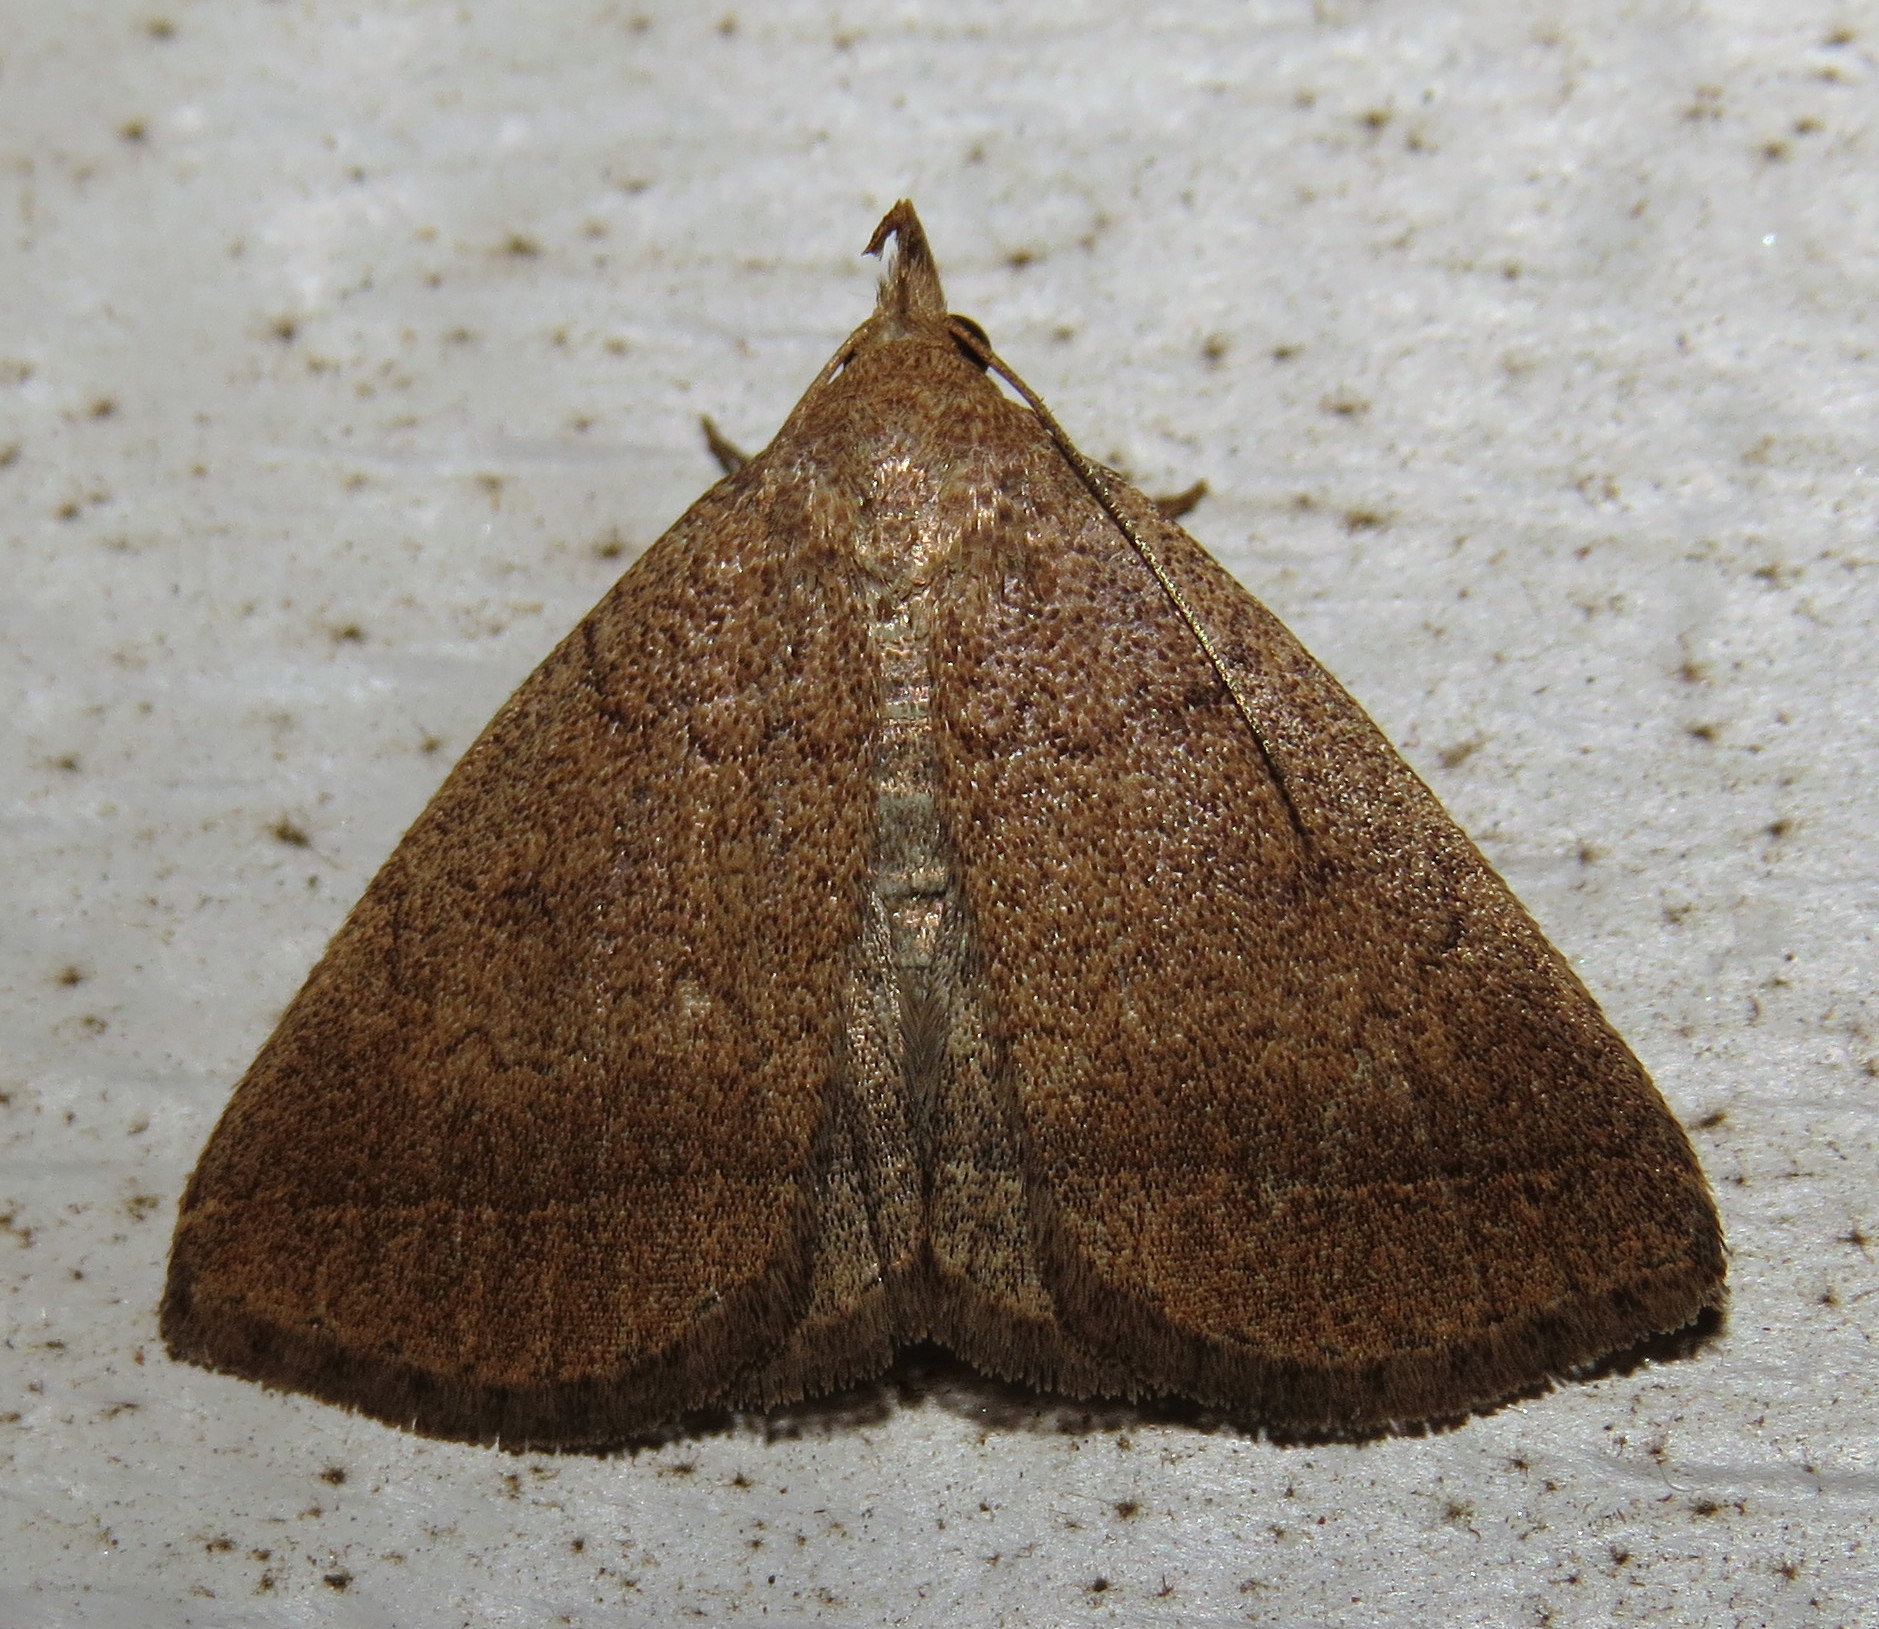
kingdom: Animalia
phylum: Arthropoda
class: Insecta
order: Lepidoptera
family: Erebidae
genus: Zanclognatha
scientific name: Zanclognatha jacchusalis
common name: Yellowish zanclognatha
